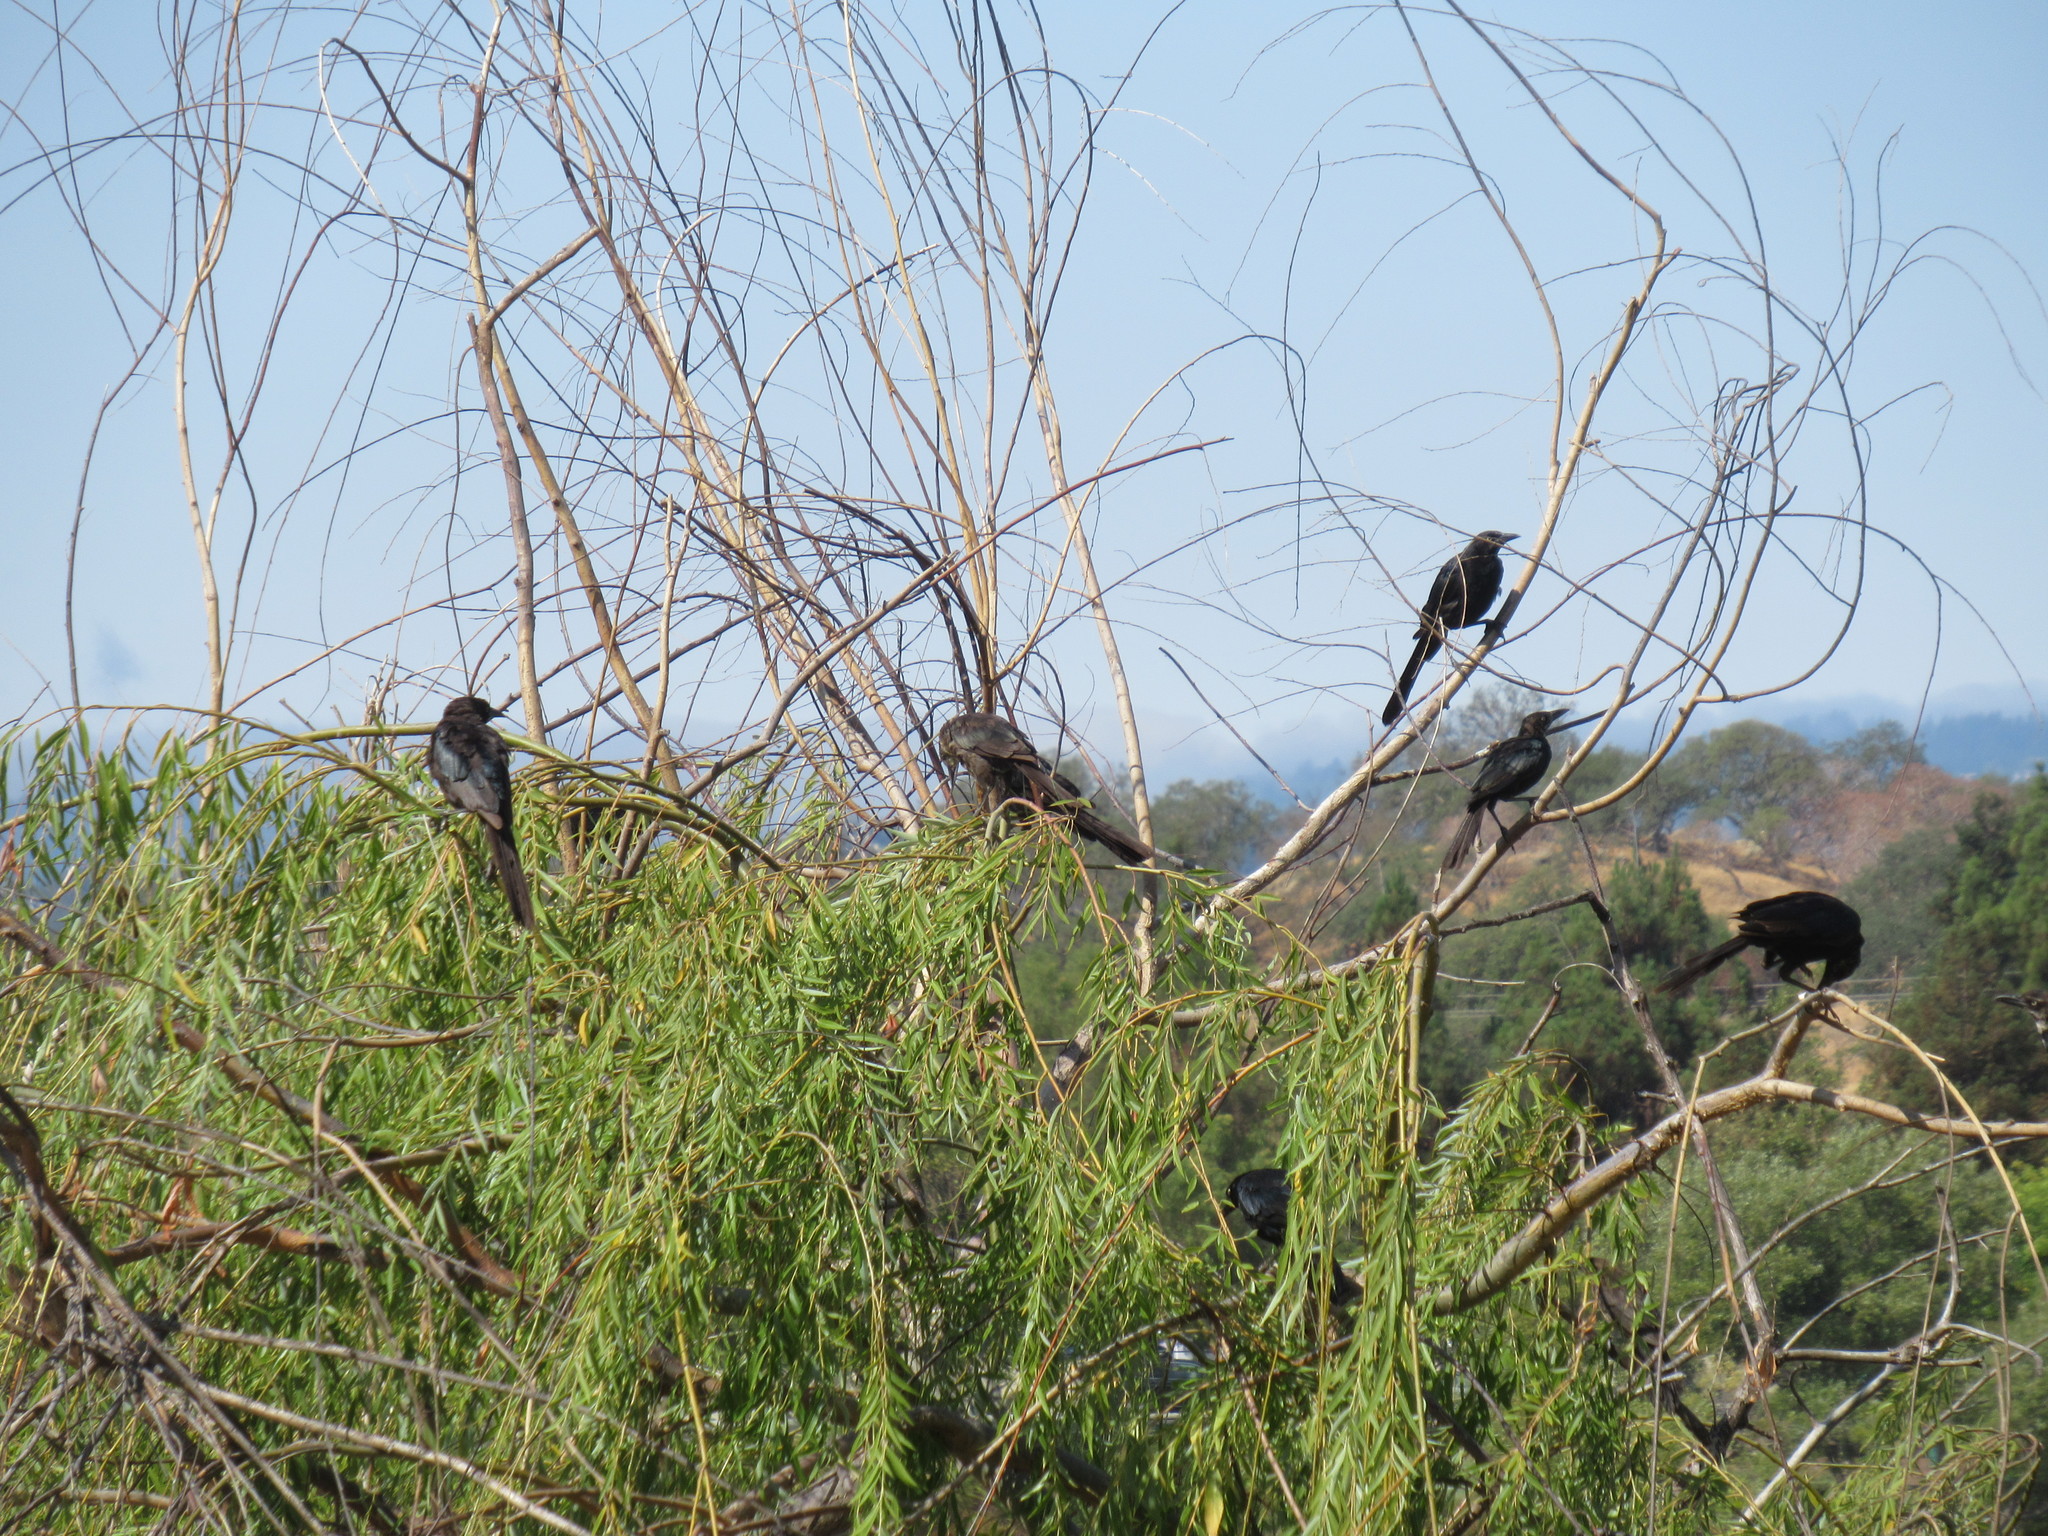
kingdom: Animalia
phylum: Chordata
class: Aves
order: Passeriformes
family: Icteridae
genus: Quiscalus
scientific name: Quiscalus mexicanus
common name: Great-tailed grackle
